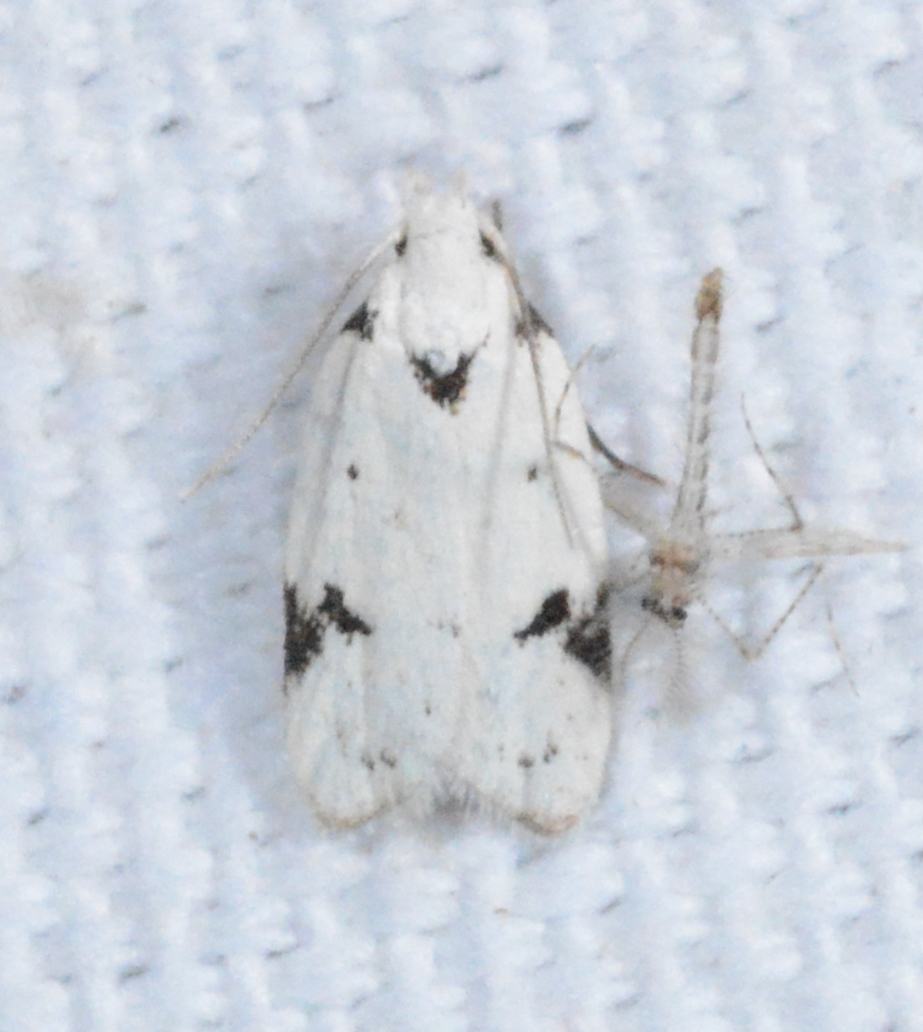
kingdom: Animalia
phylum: Arthropoda
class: Insecta
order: Lepidoptera
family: Oecophoridae
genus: Inga
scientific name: Inga sparsiciliella
